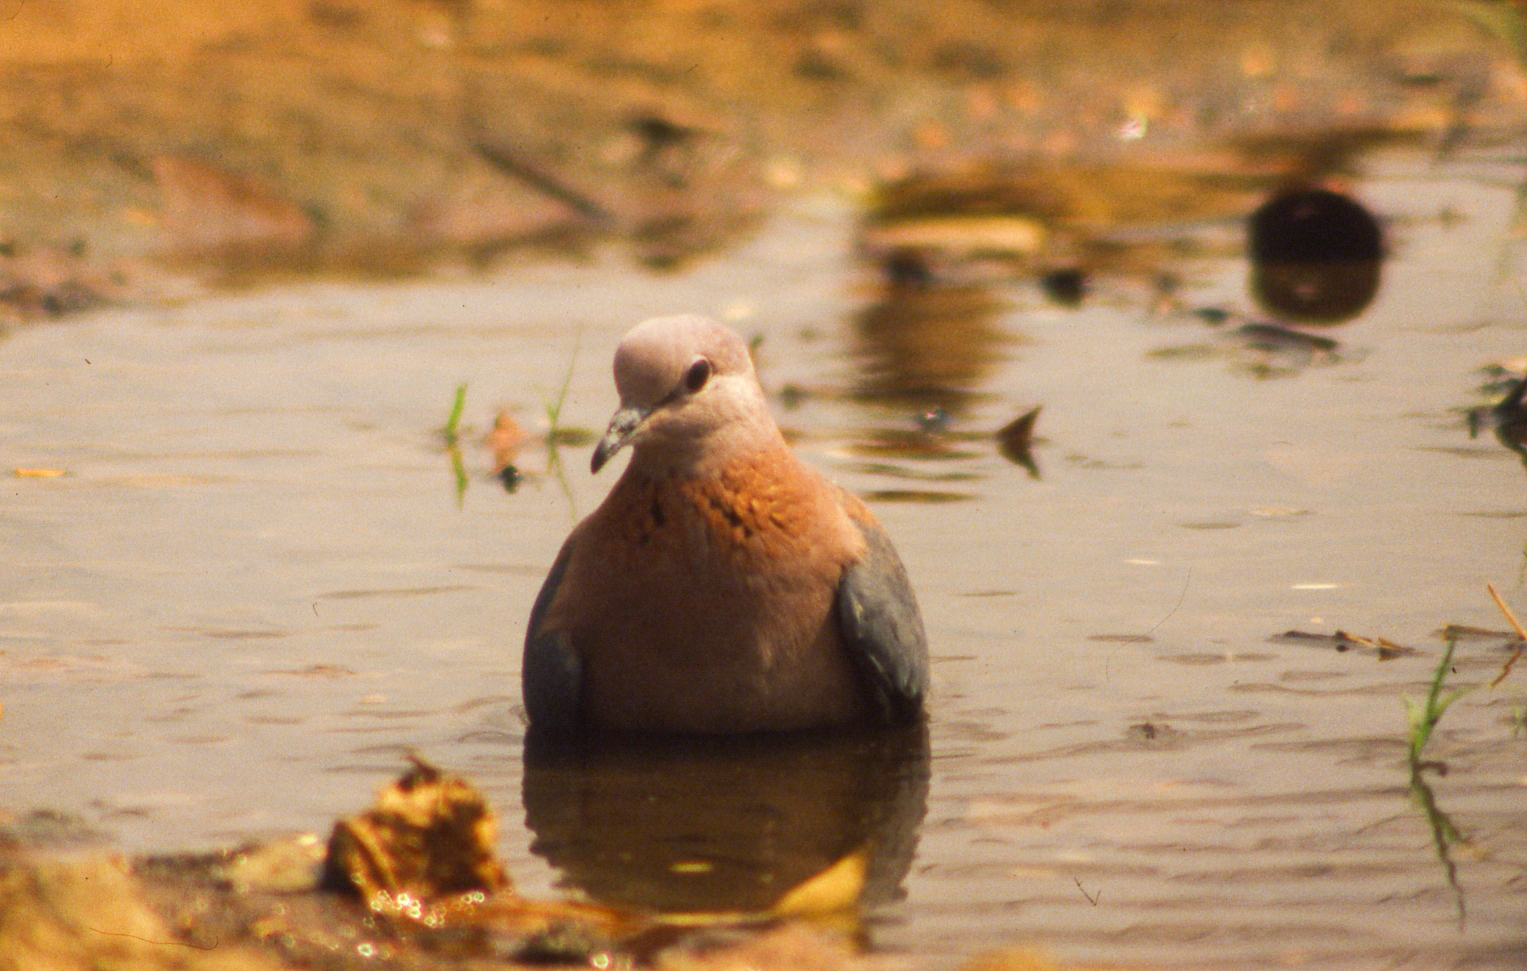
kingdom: Animalia
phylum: Chordata
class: Aves
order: Columbiformes
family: Columbidae
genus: Spilopelia
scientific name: Spilopelia senegalensis
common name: Laughing dove
